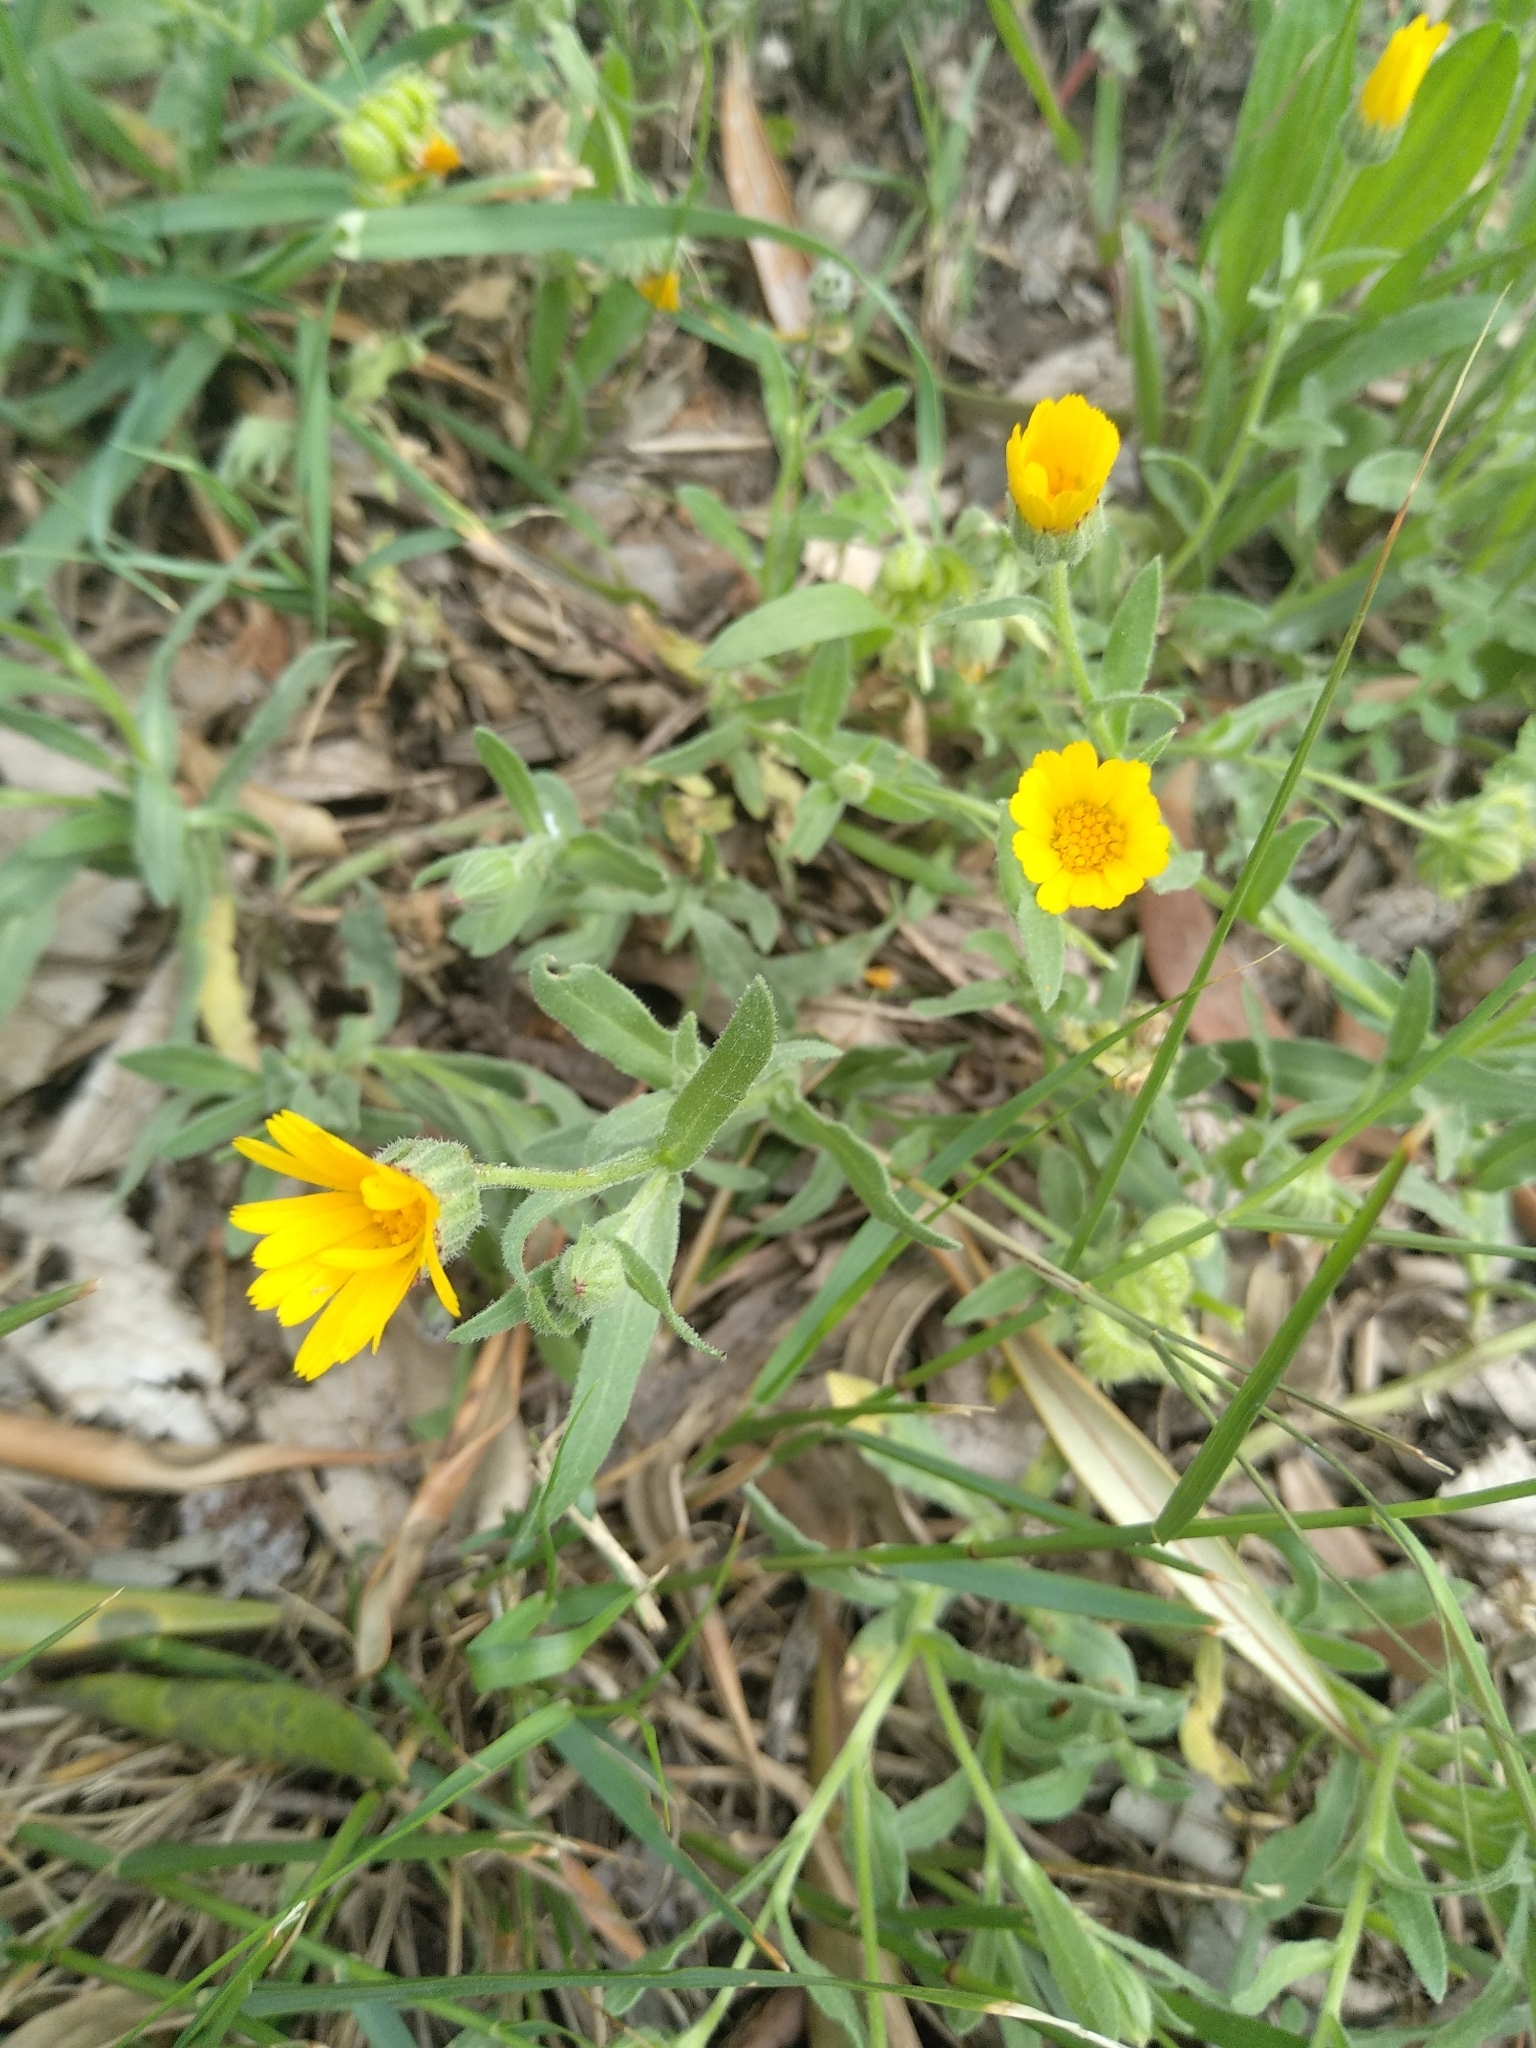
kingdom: Plantae
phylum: Tracheophyta
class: Magnoliopsida
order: Asterales
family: Asteraceae
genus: Calendula
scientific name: Calendula arvensis
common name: Field marigold
